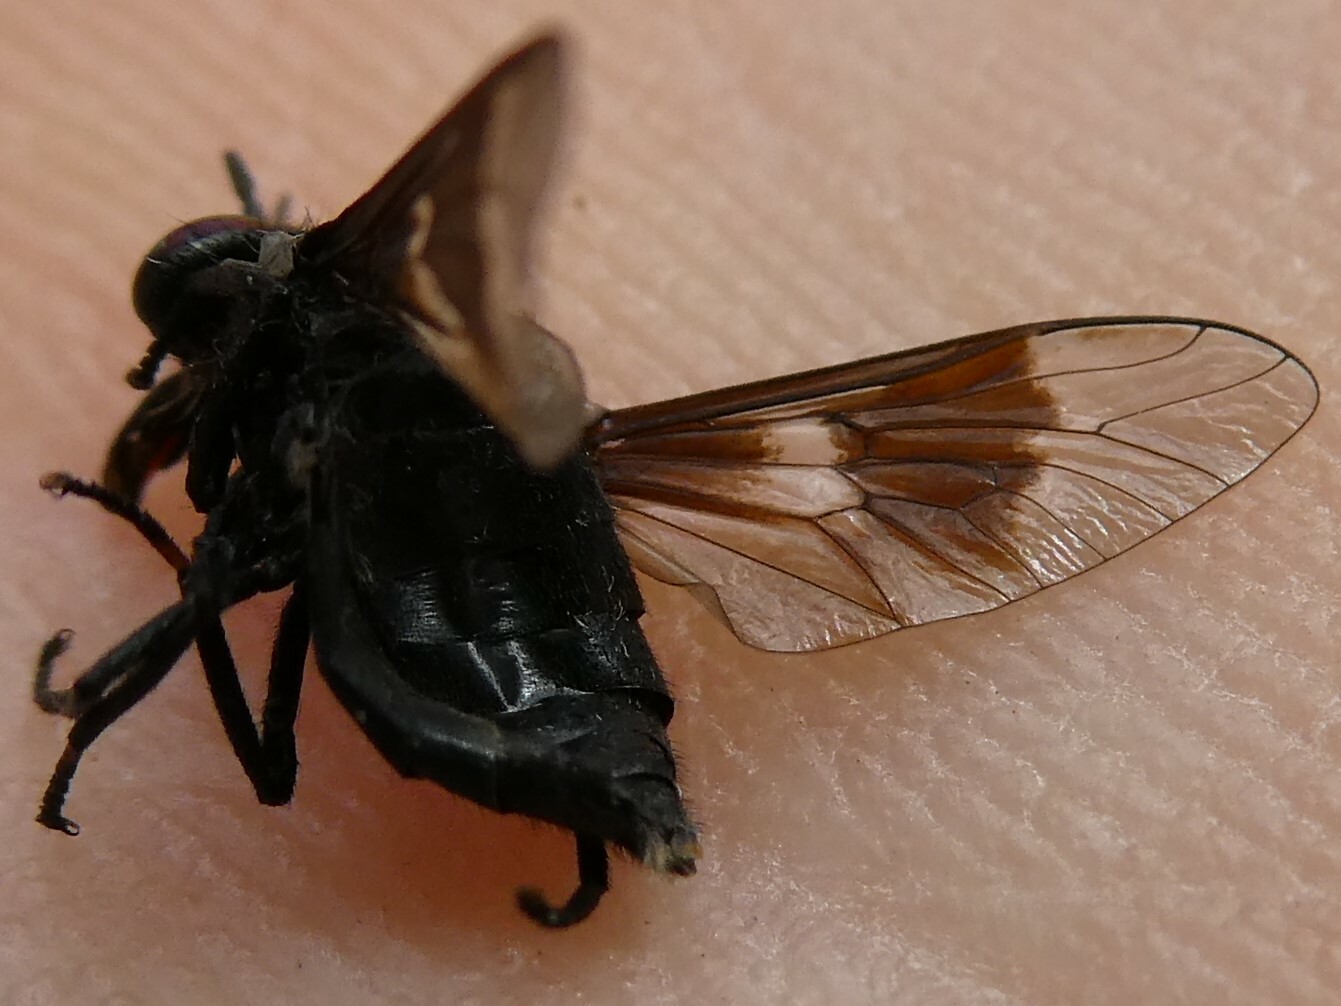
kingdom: Animalia
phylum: Arthropoda
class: Insecta
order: Diptera
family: Tabanidae
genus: Chrysops
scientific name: Chrysops ater
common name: Dark deer fly
